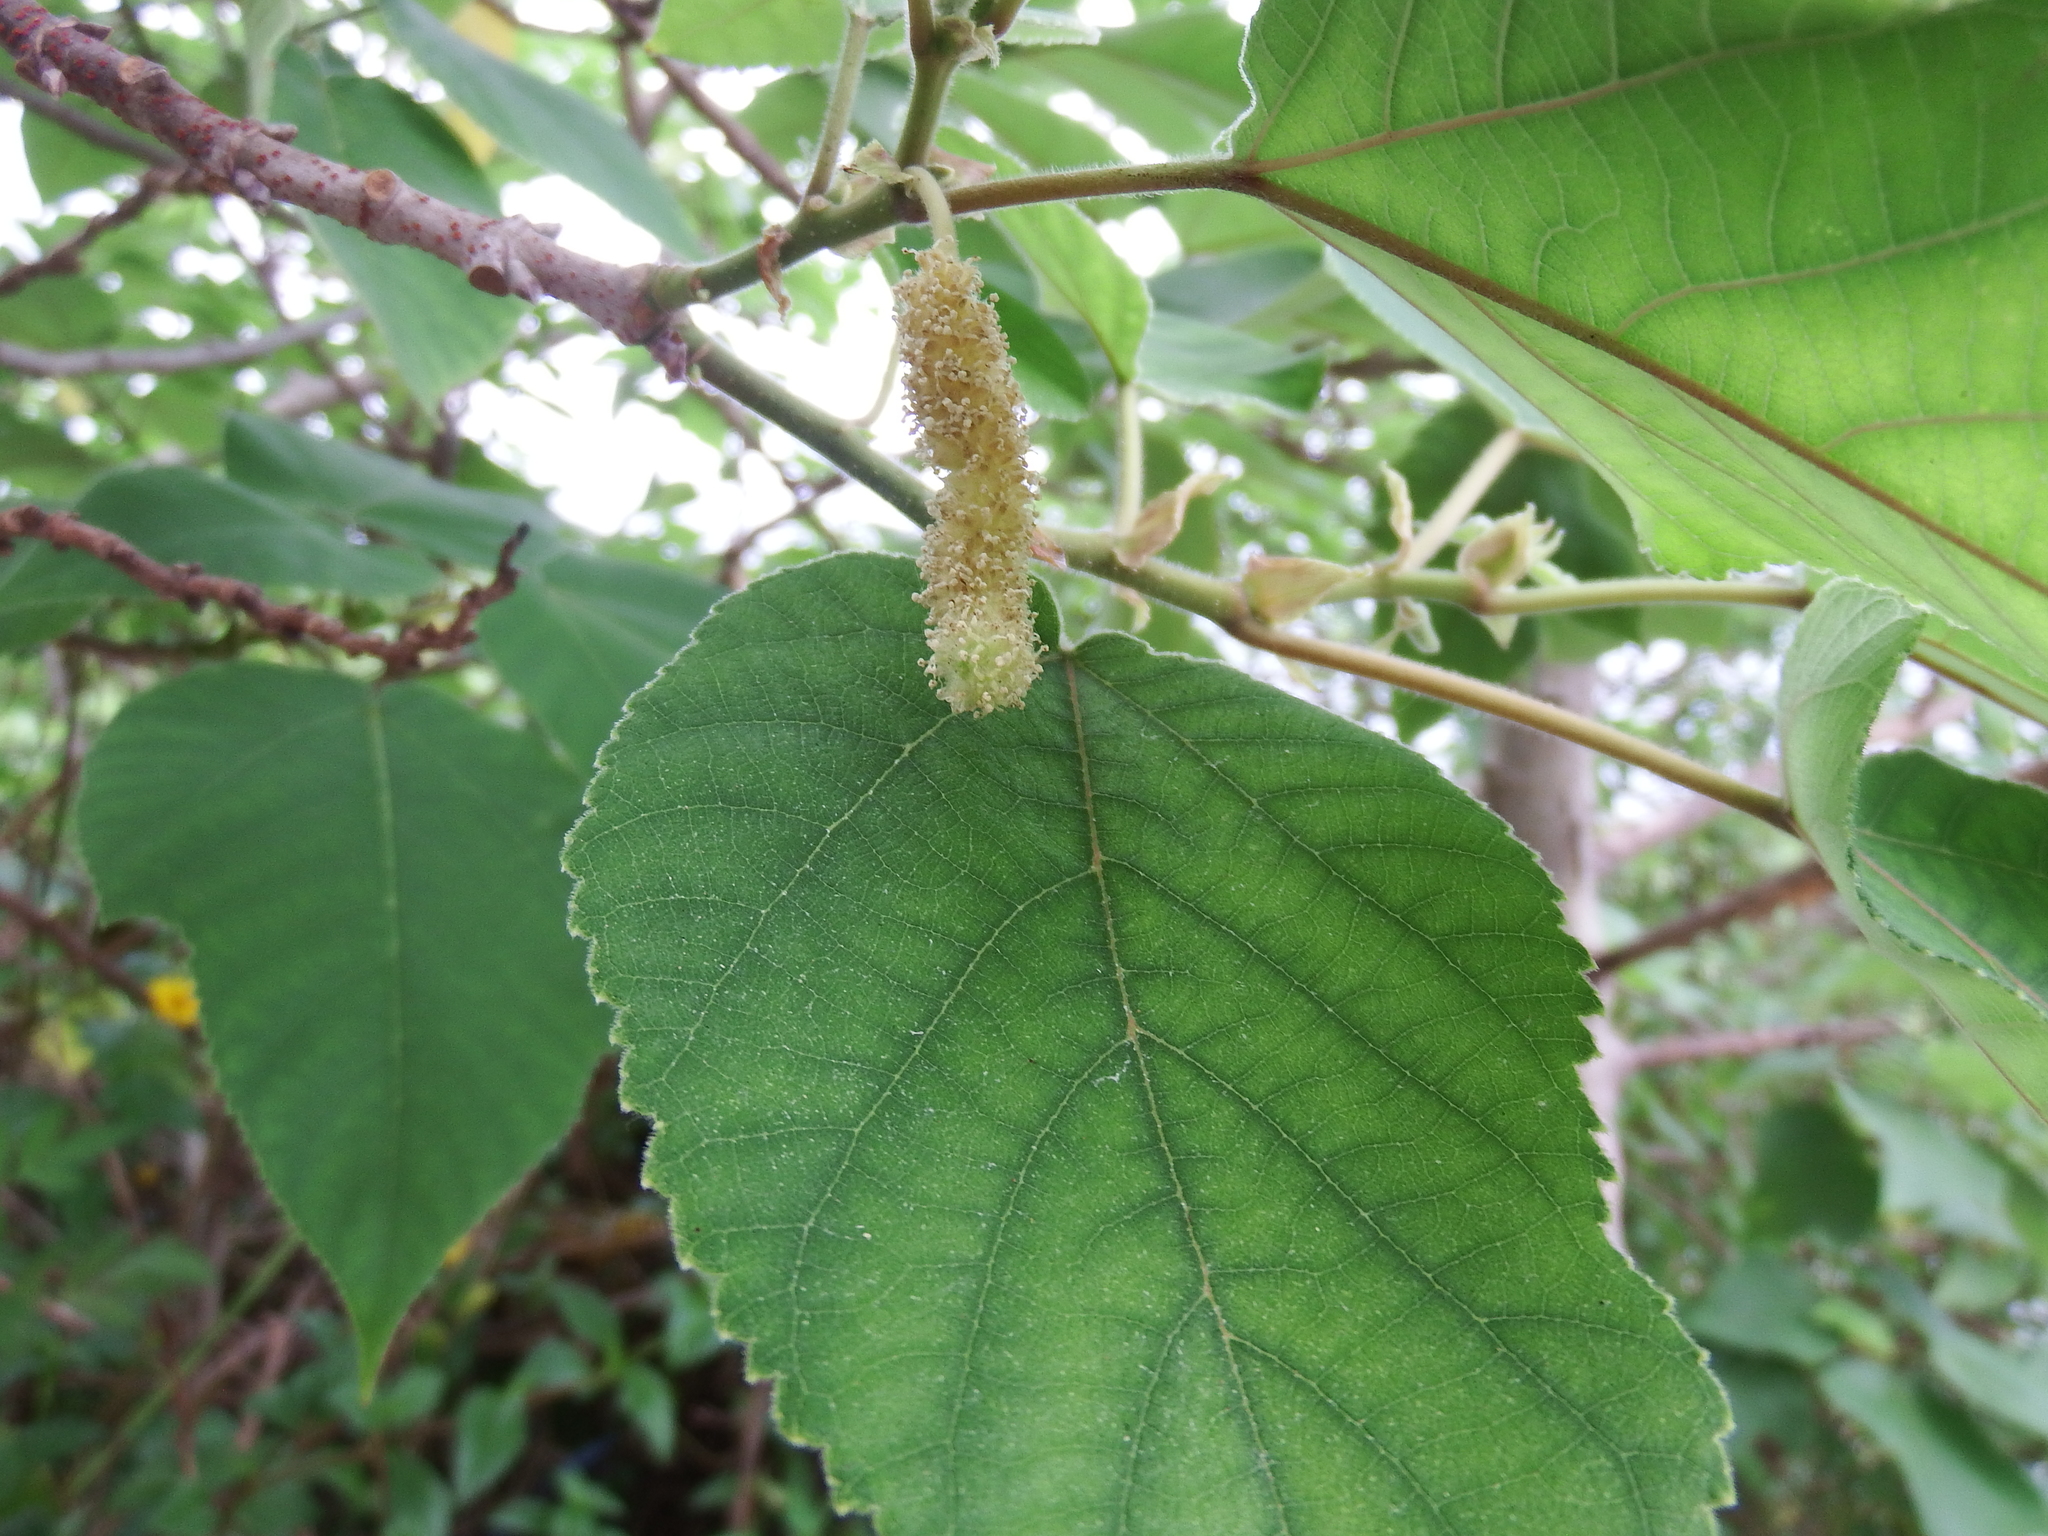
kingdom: Plantae
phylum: Tracheophyta
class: Magnoliopsida
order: Rosales
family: Moraceae
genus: Broussonetia
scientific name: Broussonetia papyrifera
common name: Paper mulberry
